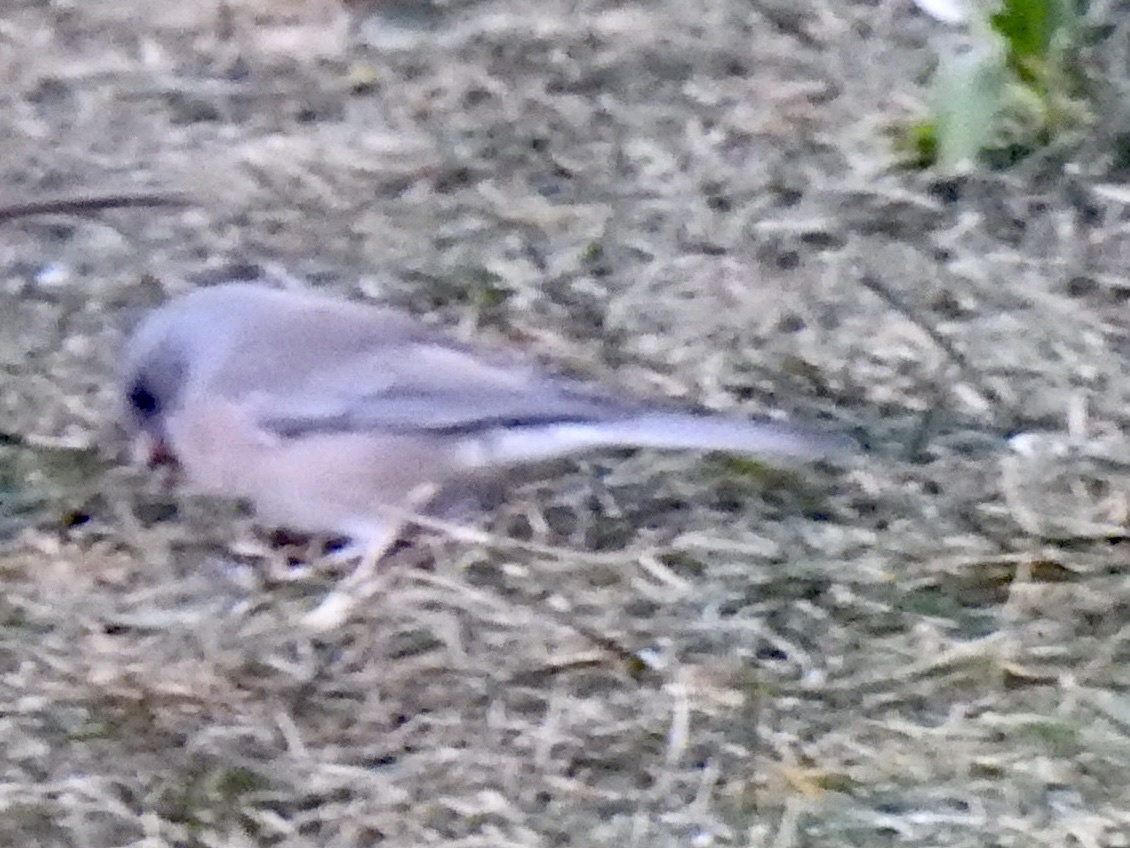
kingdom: Animalia
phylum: Chordata
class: Aves
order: Passeriformes
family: Passerellidae
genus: Junco
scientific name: Junco hyemalis
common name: Dark-eyed junco
